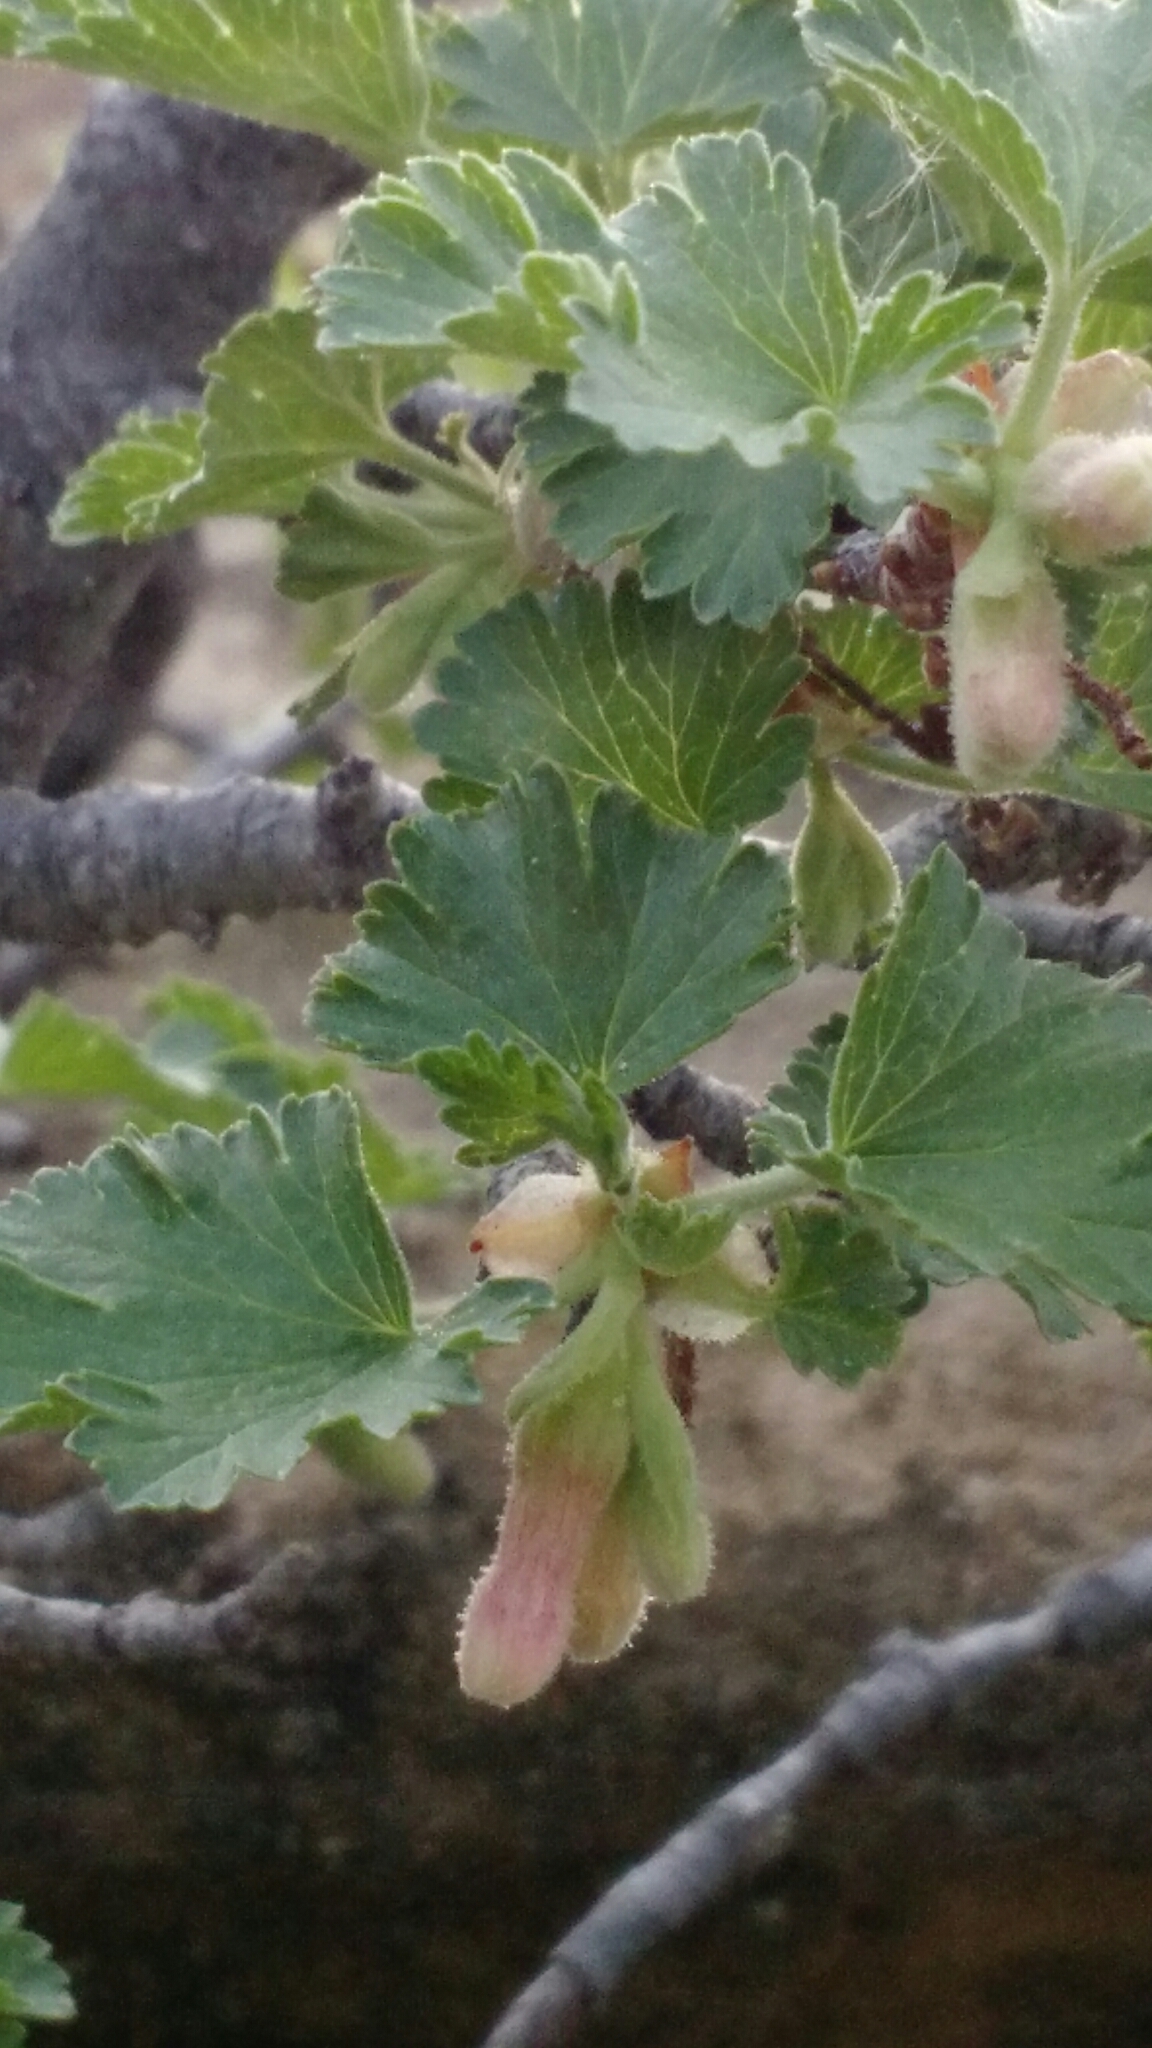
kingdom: Plantae
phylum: Tracheophyta
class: Magnoliopsida
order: Saxifragales
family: Grossulariaceae
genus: Ribes
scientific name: Ribes cereum
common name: Wax currant
